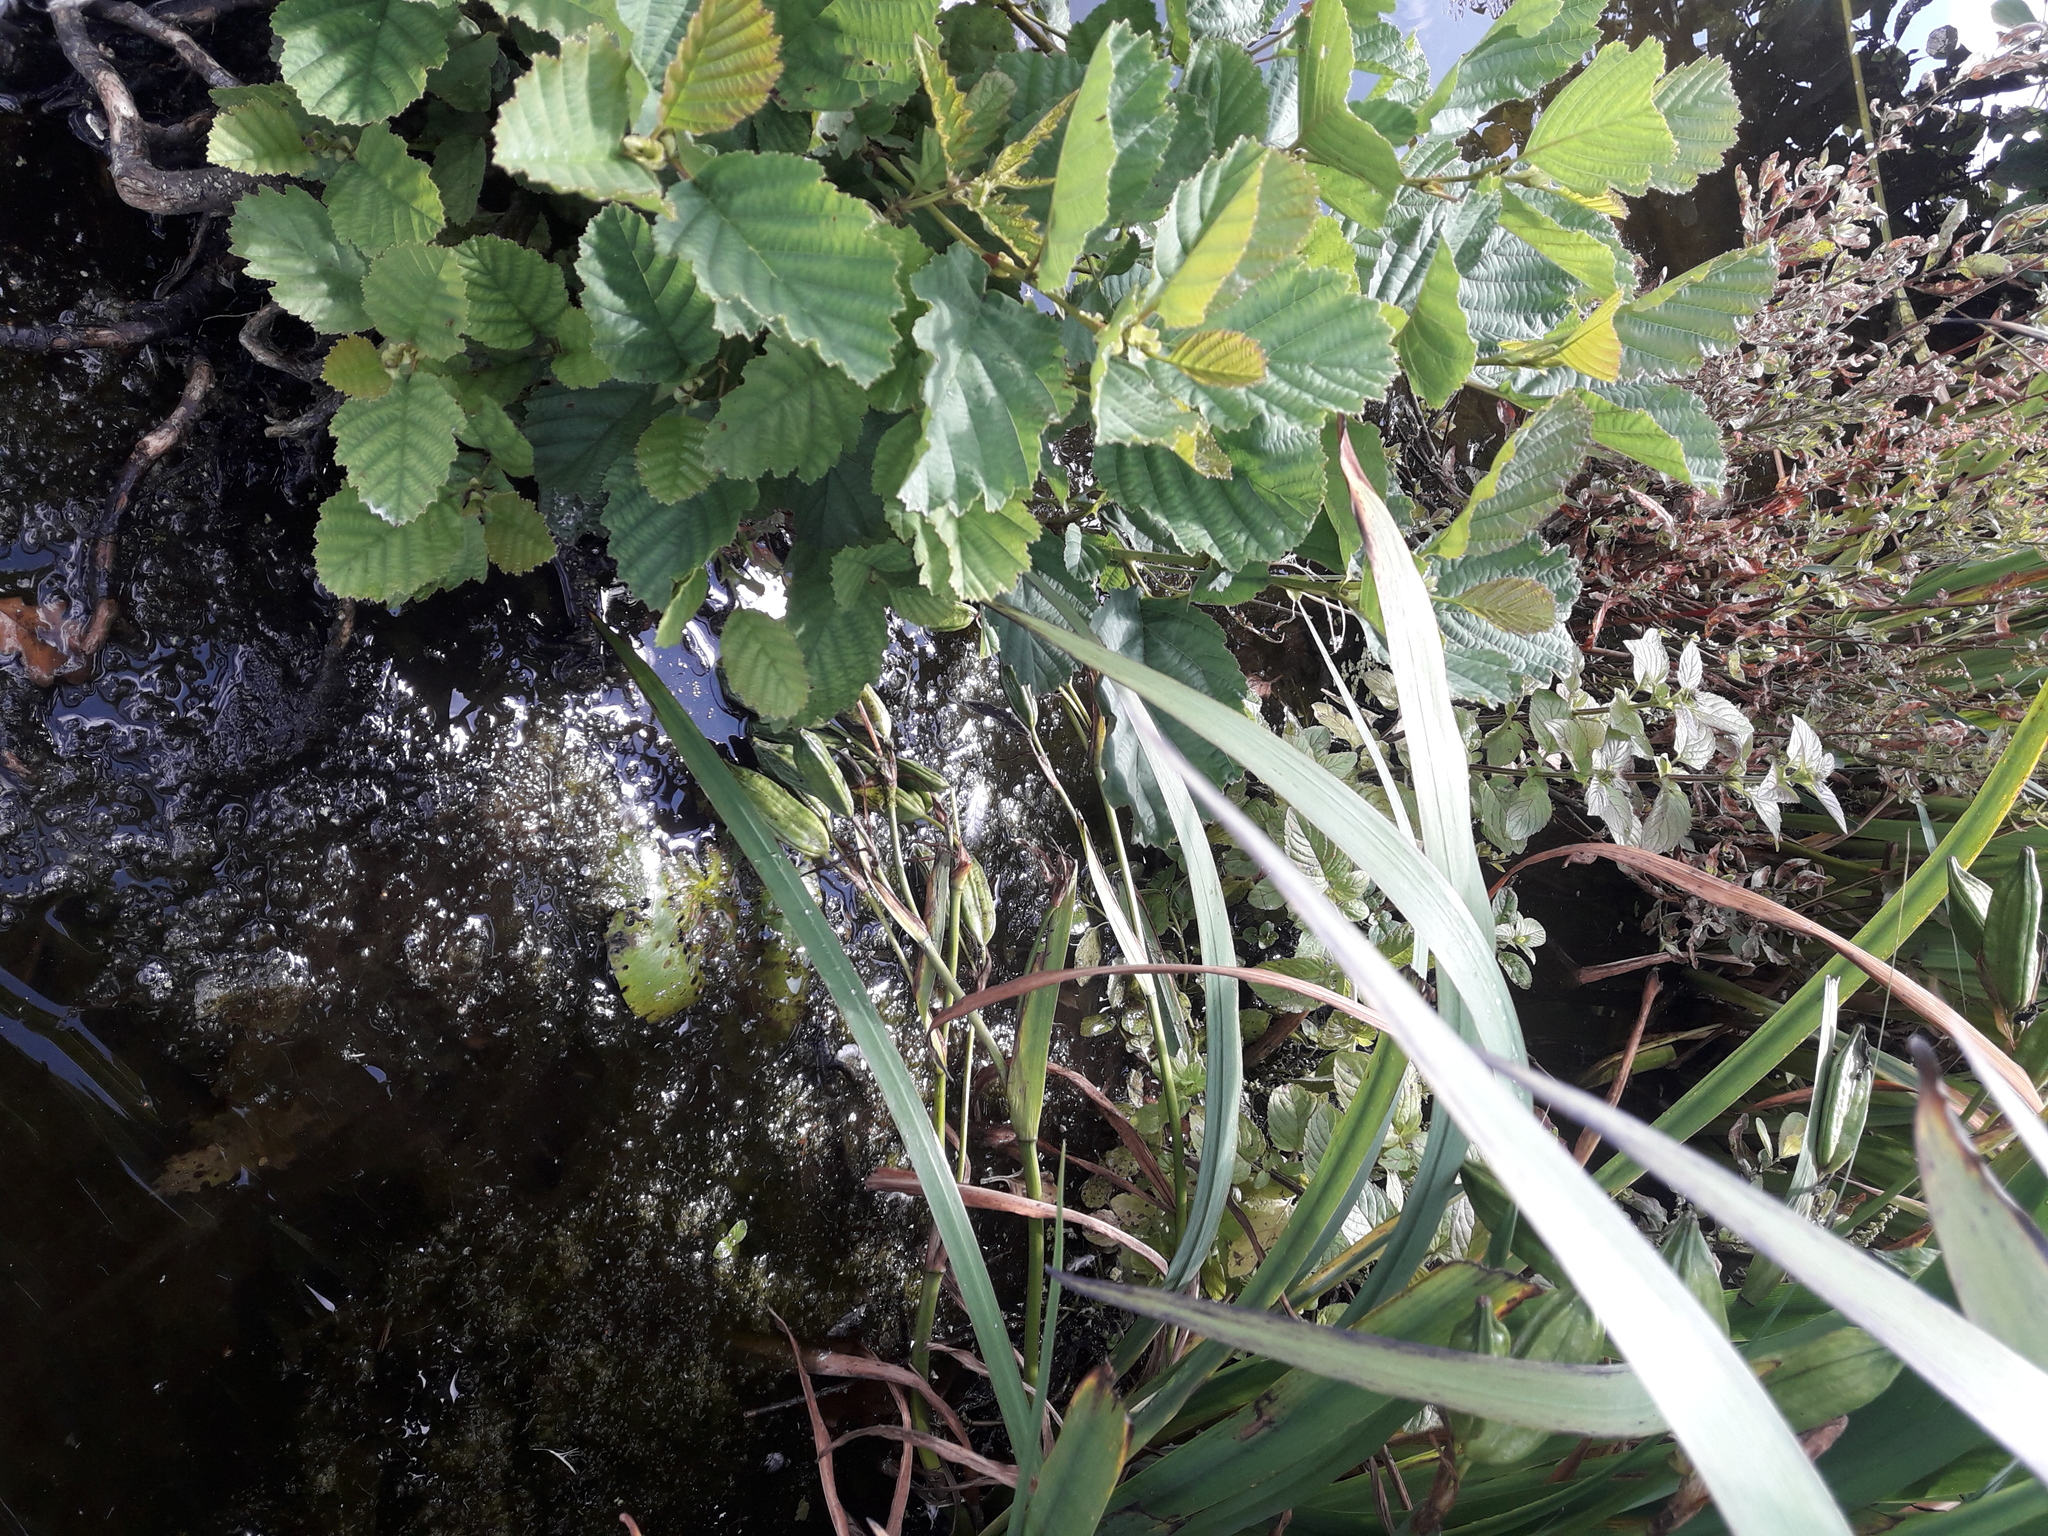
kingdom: Plantae
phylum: Tracheophyta
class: Liliopsida
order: Asparagales
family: Iridaceae
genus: Iris
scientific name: Iris pseudacorus
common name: Yellow flag
